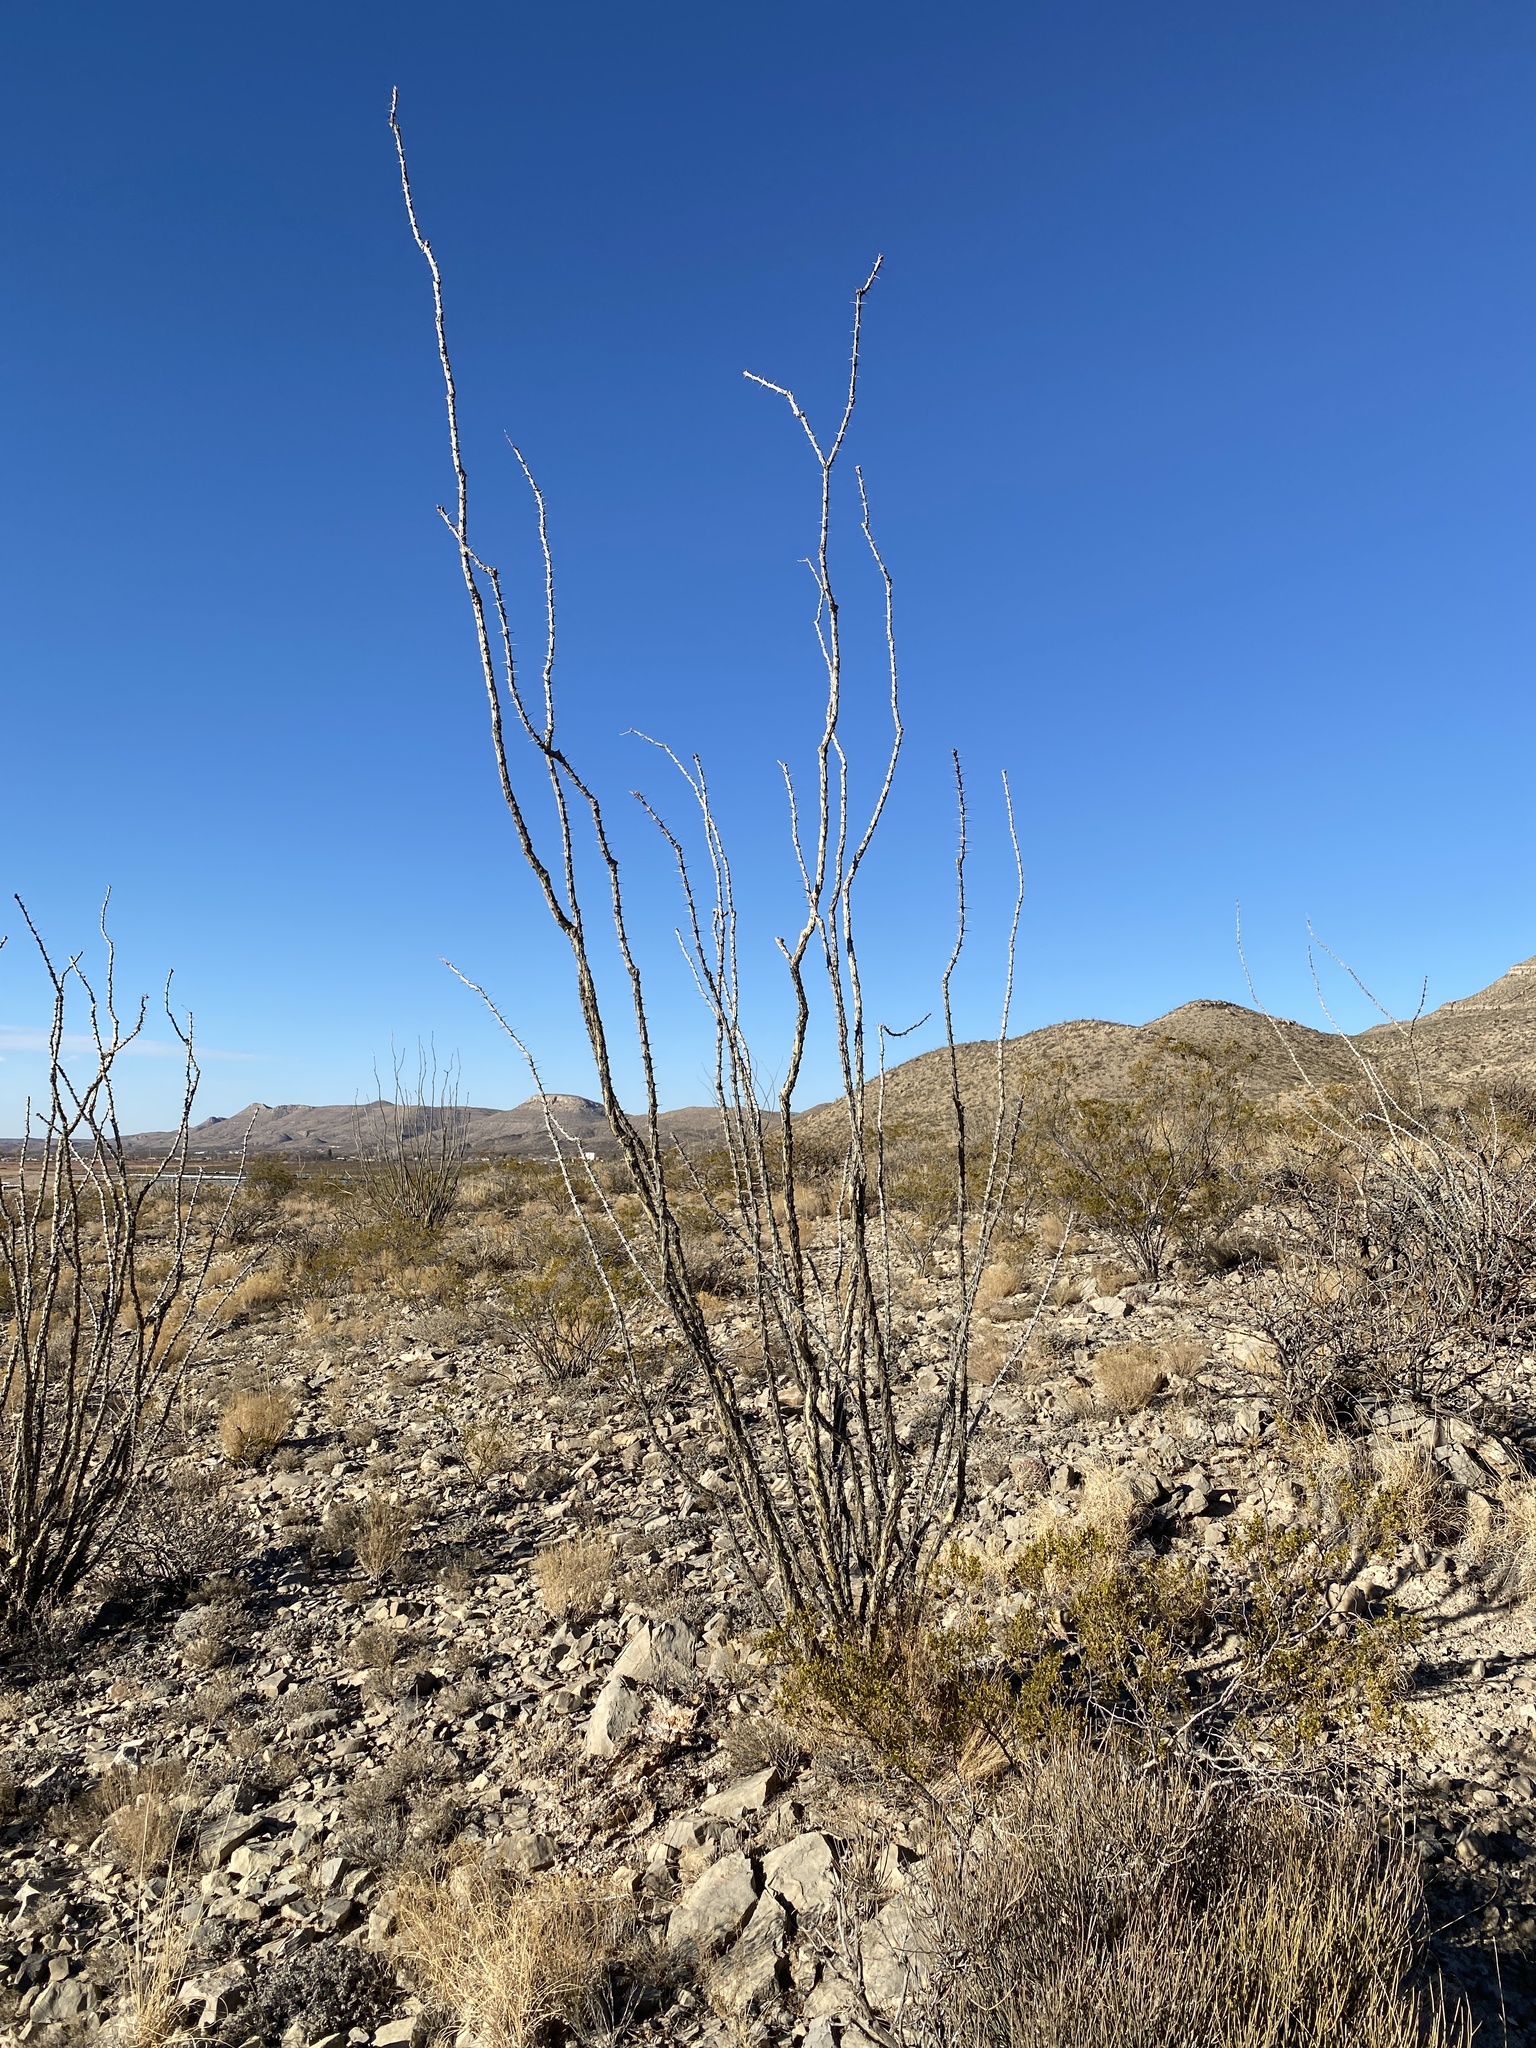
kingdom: Plantae
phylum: Tracheophyta
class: Magnoliopsida
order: Ericales
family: Fouquieriaceae
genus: Fouquieria
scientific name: Fouquieria splendens
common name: Vine-cactus
